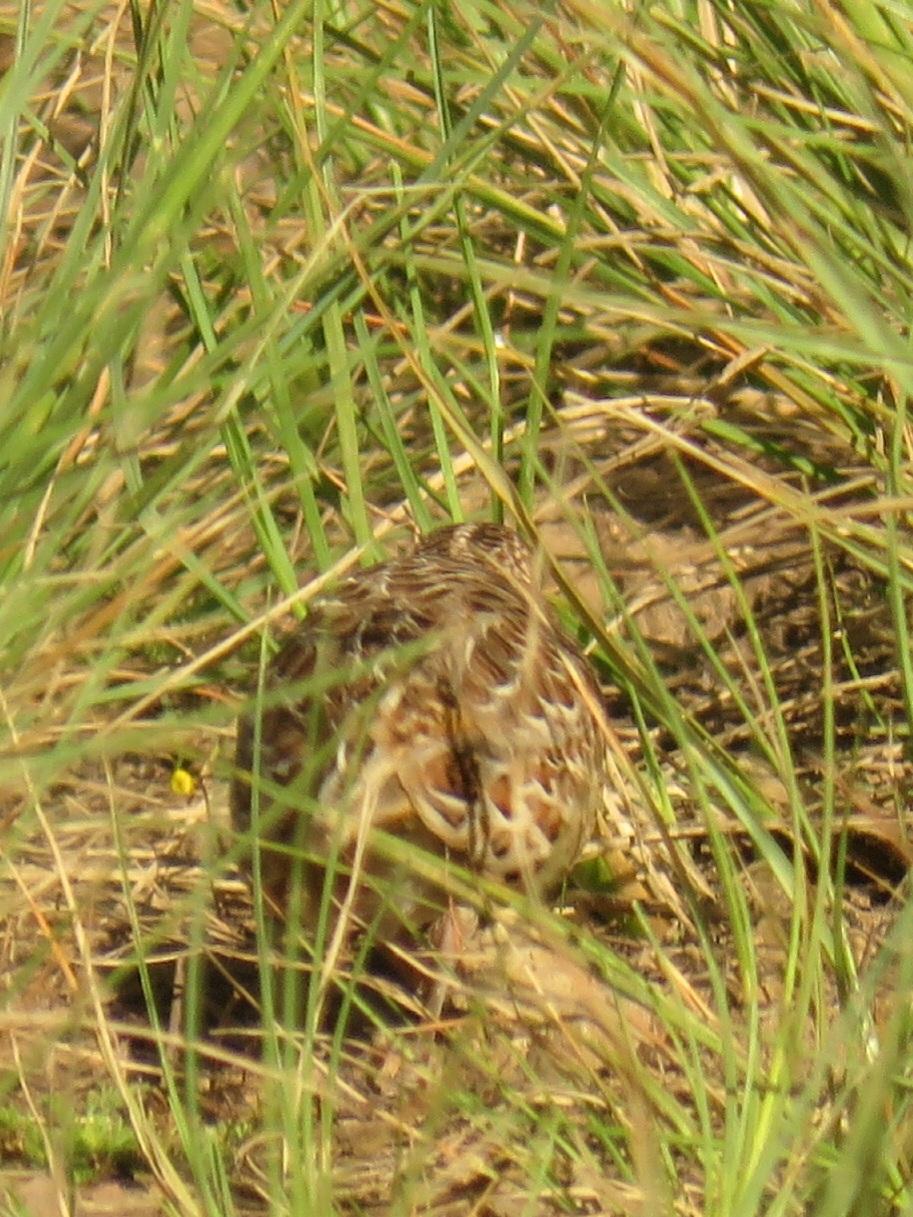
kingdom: Animalia
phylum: Chordata
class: Aves
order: Charadriiformes
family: Turnicidae
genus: Turnix
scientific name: Turnix sylvaticus
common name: Common buttonquail
